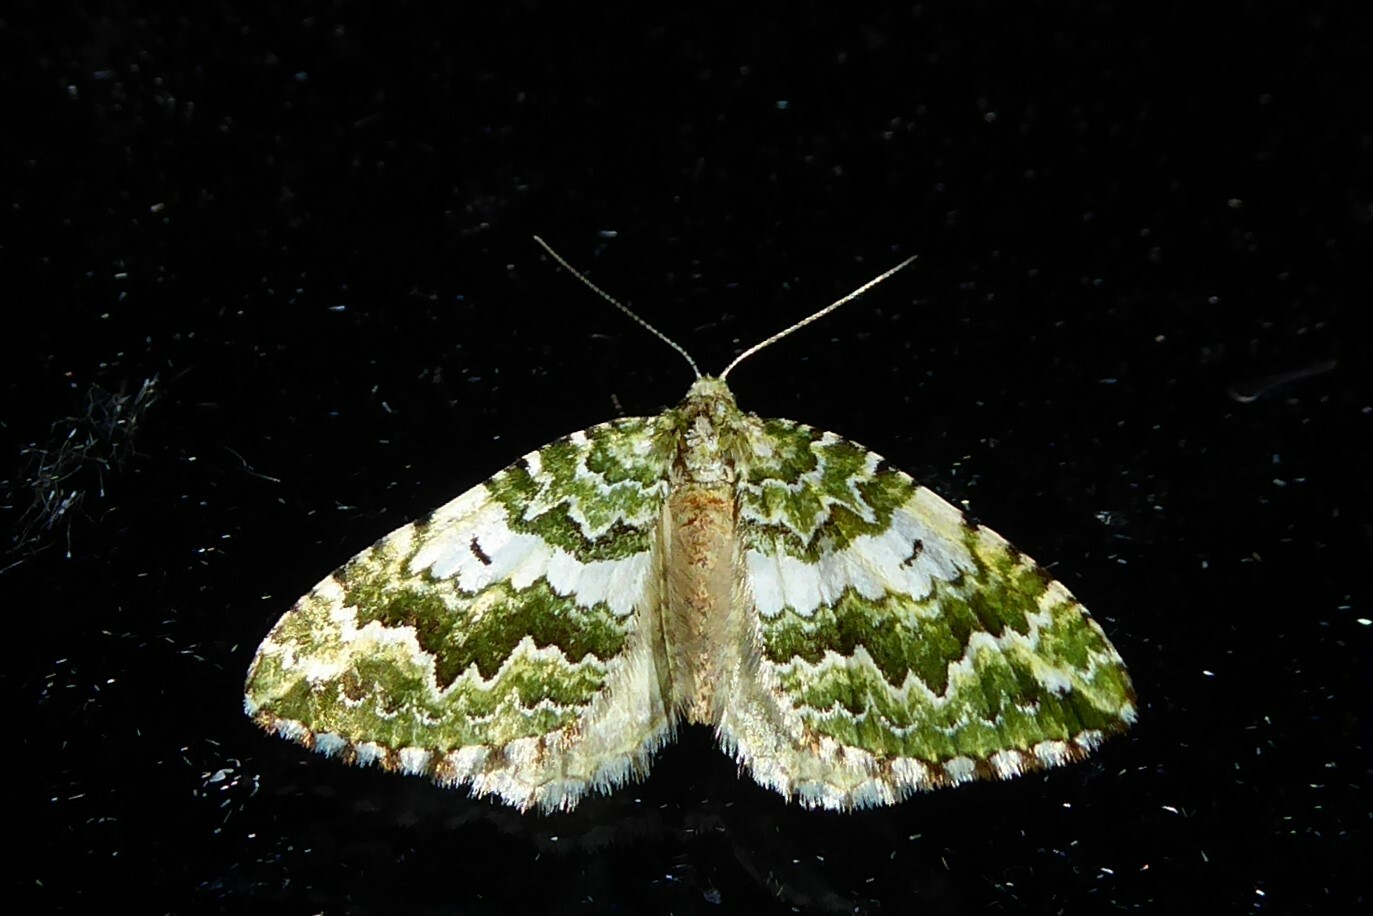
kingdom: Animalia
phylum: Arthropoda
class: Insecta
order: Lepidoptera
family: Geometridae
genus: Asaphodes
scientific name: Asaphodes beata
